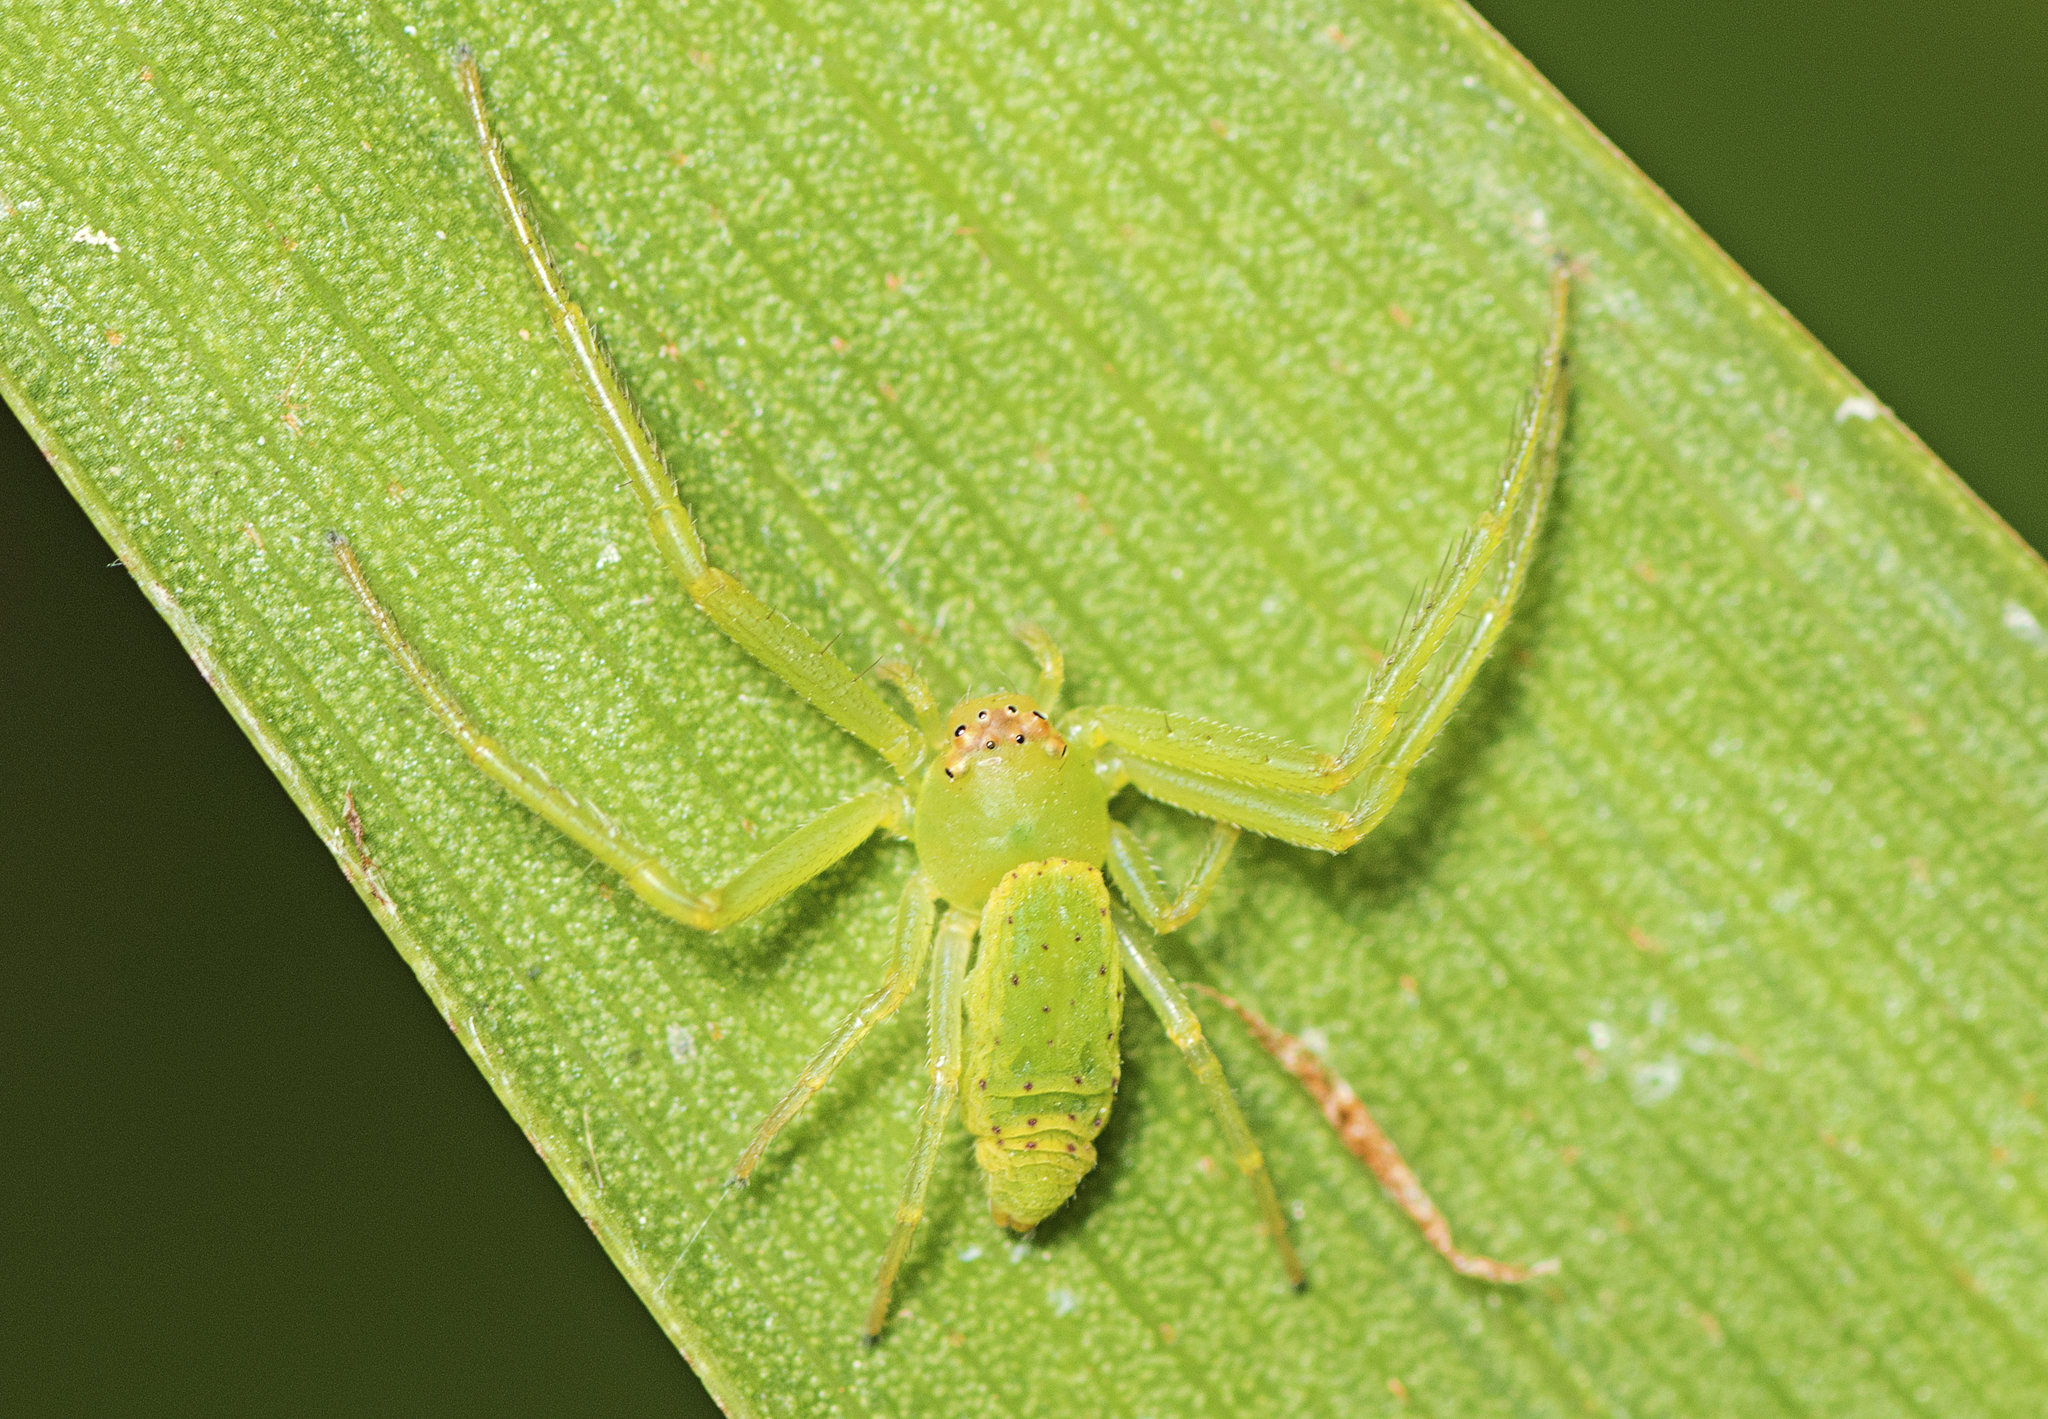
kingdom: Animalia
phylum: Arthropoda
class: Arachnida
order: Araneae
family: Thomisidae
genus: Cetratus
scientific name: Cetratus rubropunctatus
